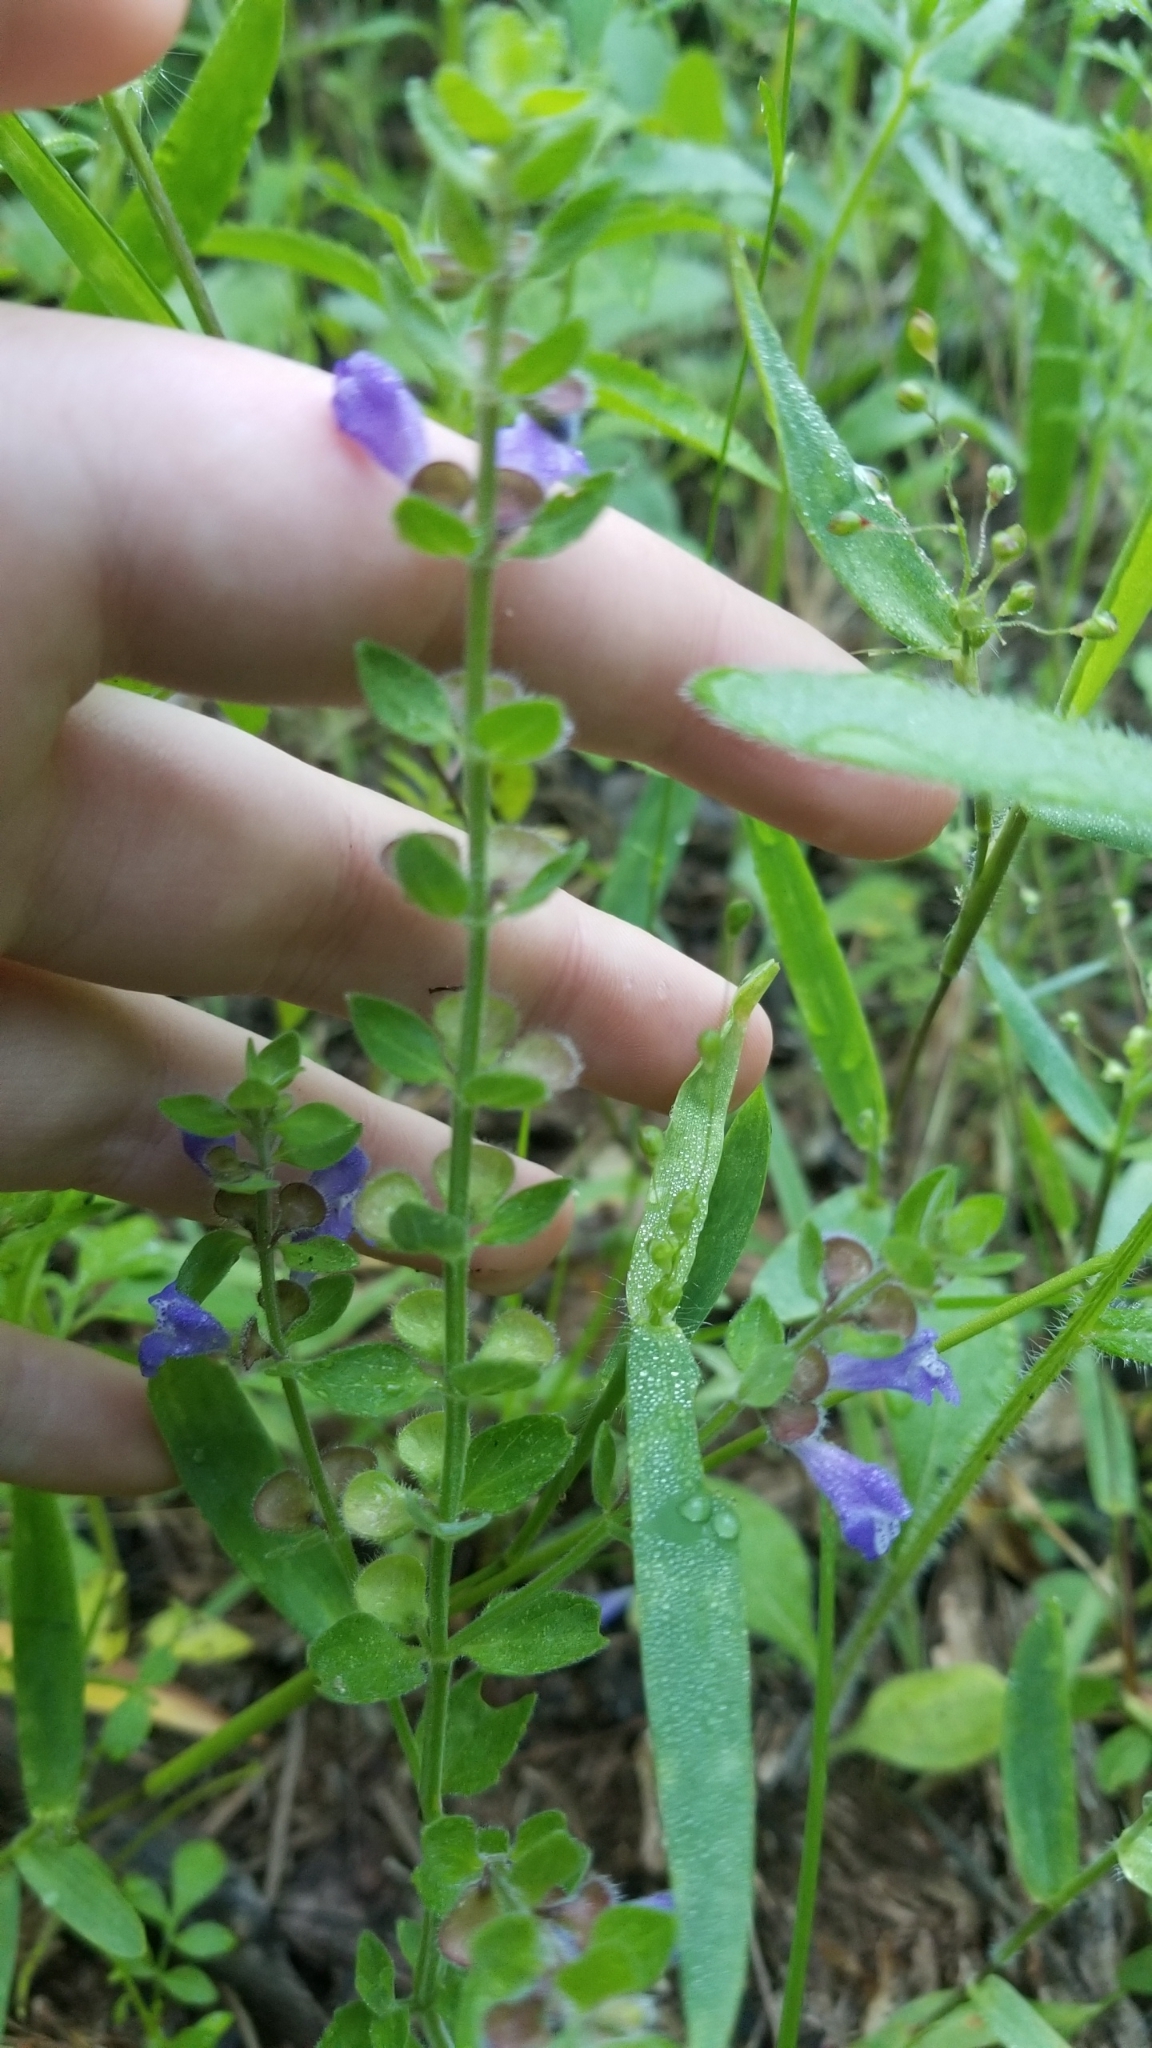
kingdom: Plantae
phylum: Tracheophyta
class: Magnoliopsida
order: Lamiales
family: Lamiaceae
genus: Scutellaria
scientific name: Scutellaria drummondii
